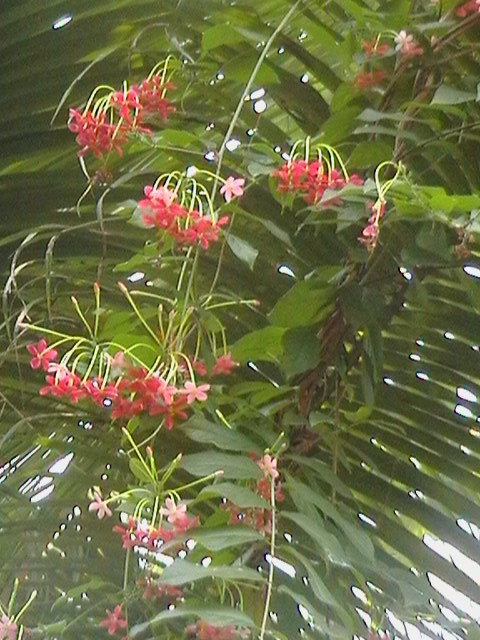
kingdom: Plantae
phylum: Tracheophyta
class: Magnoliopsida
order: Myrtales
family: Combretaceae
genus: Combretum
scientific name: Combretum indicum
